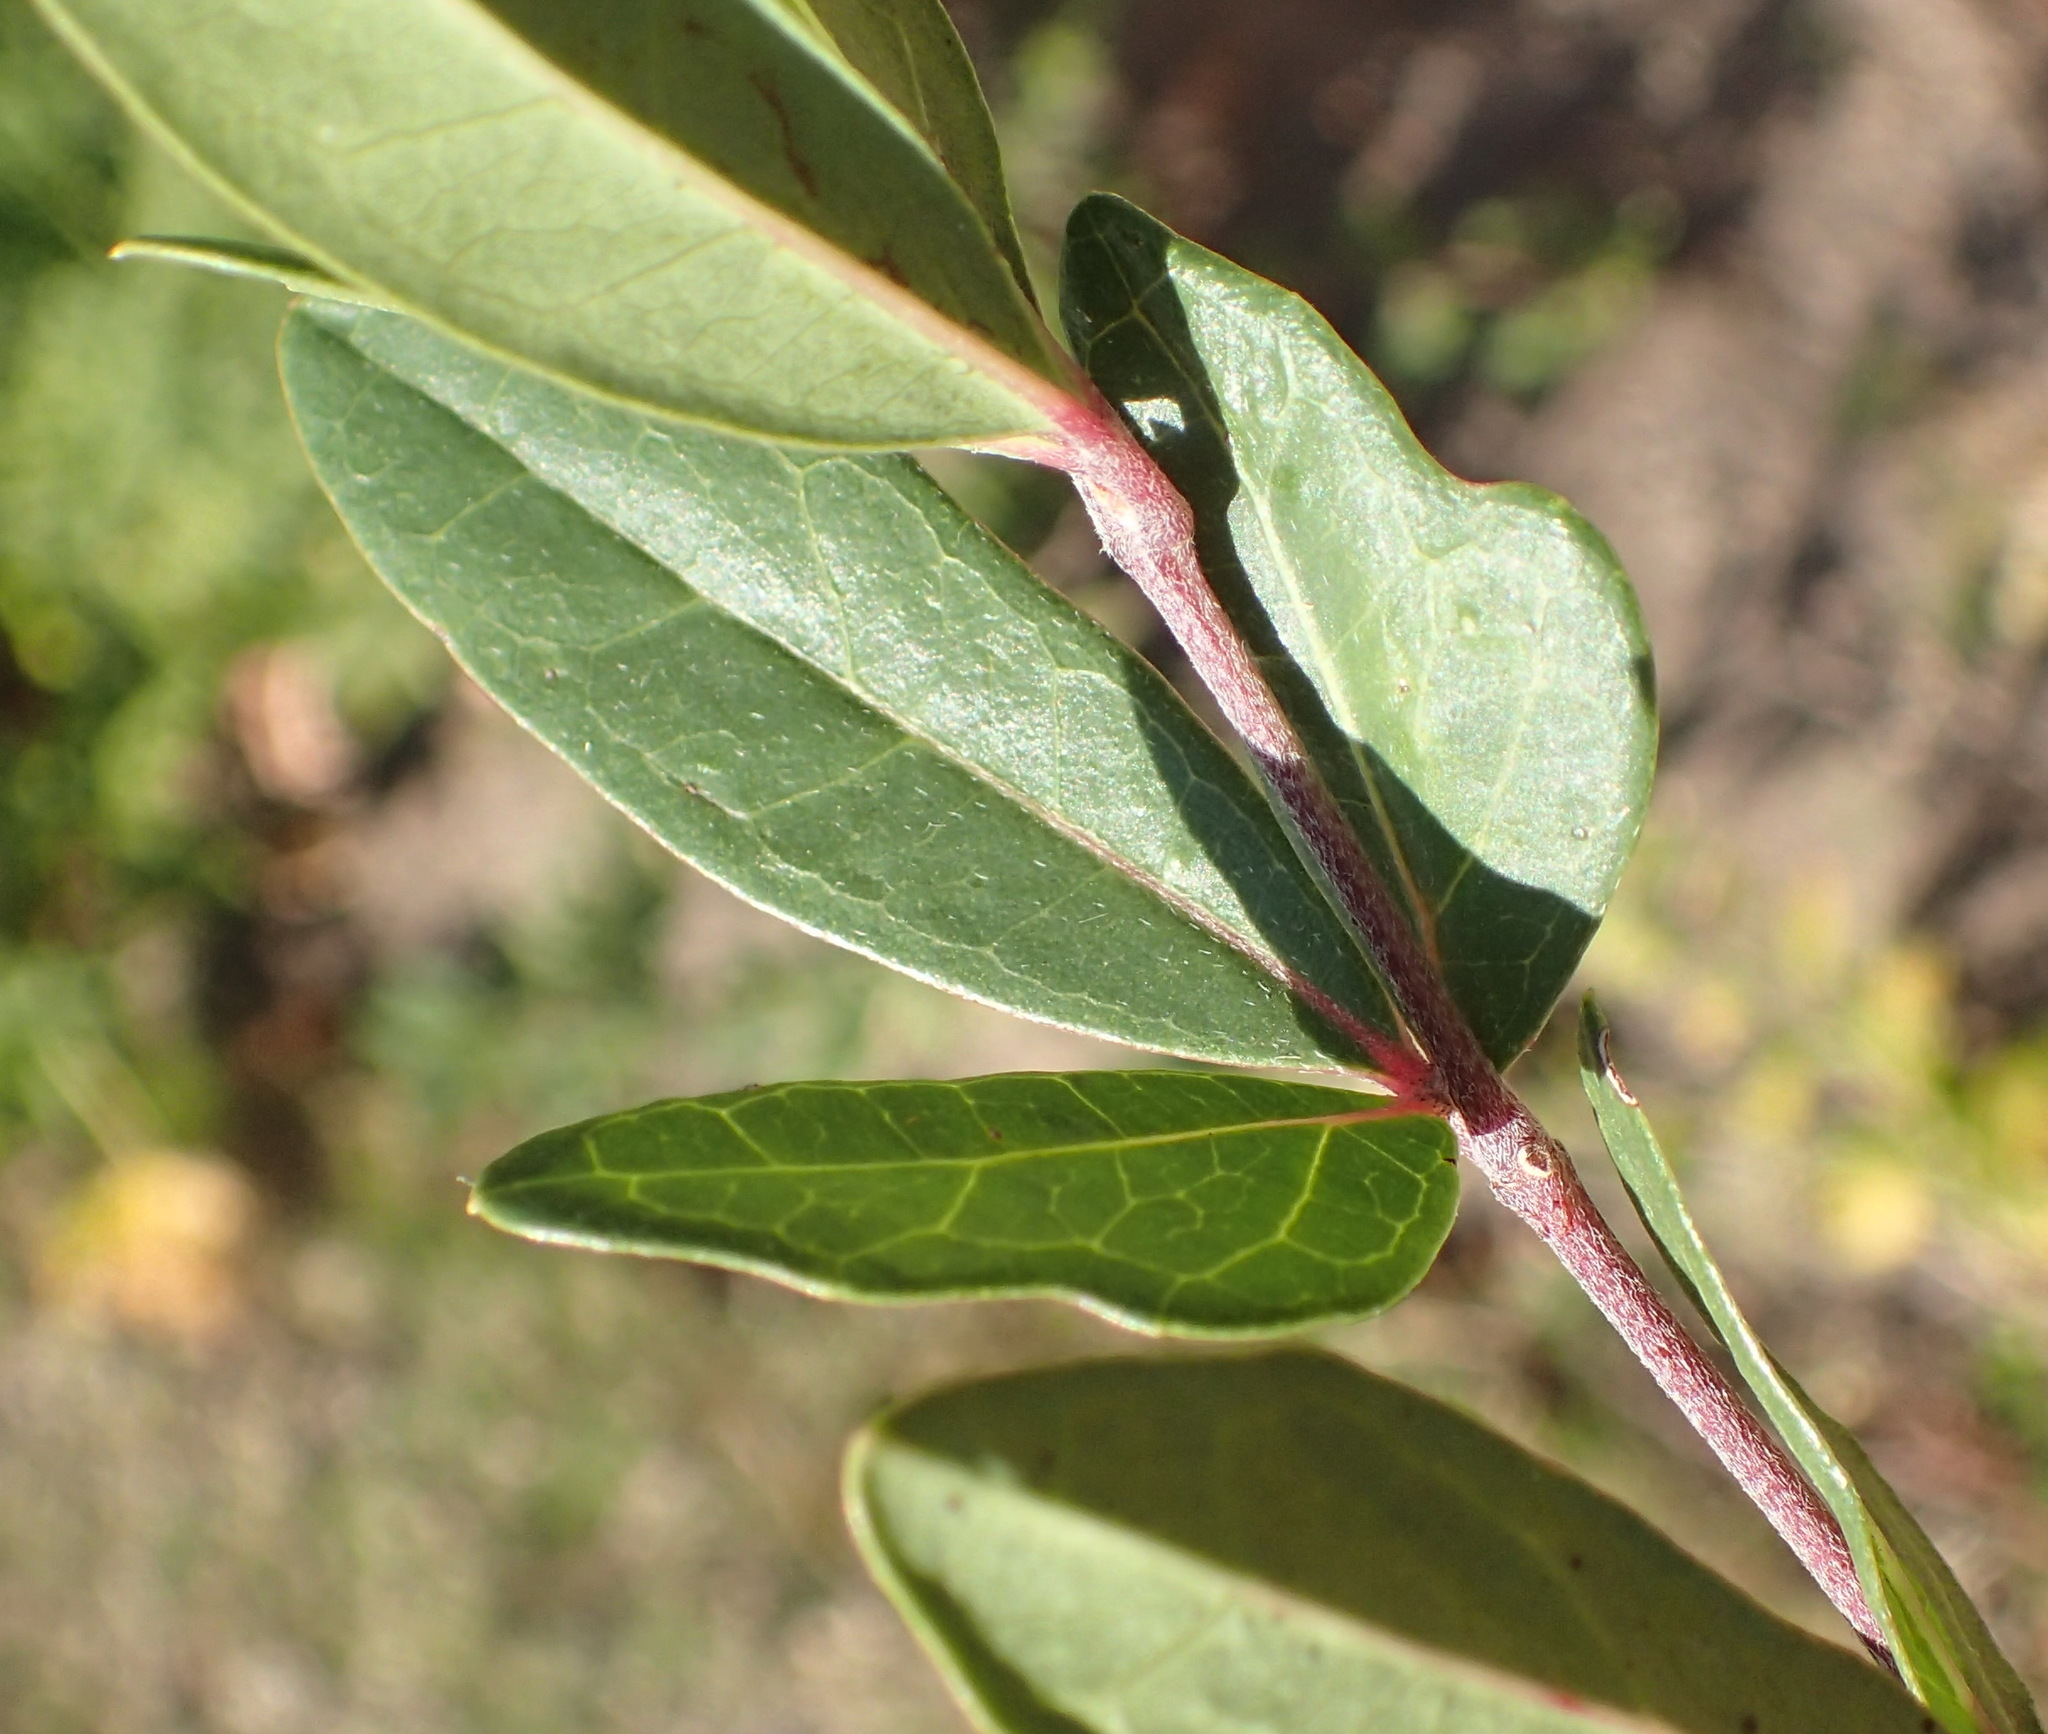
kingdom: Plantae
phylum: Tracheophyta
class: Magnoliopsida
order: Vitales
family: Vitaceae
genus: Rhoicissus
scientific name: Rhoicissus tridentata
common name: Common forest grape
